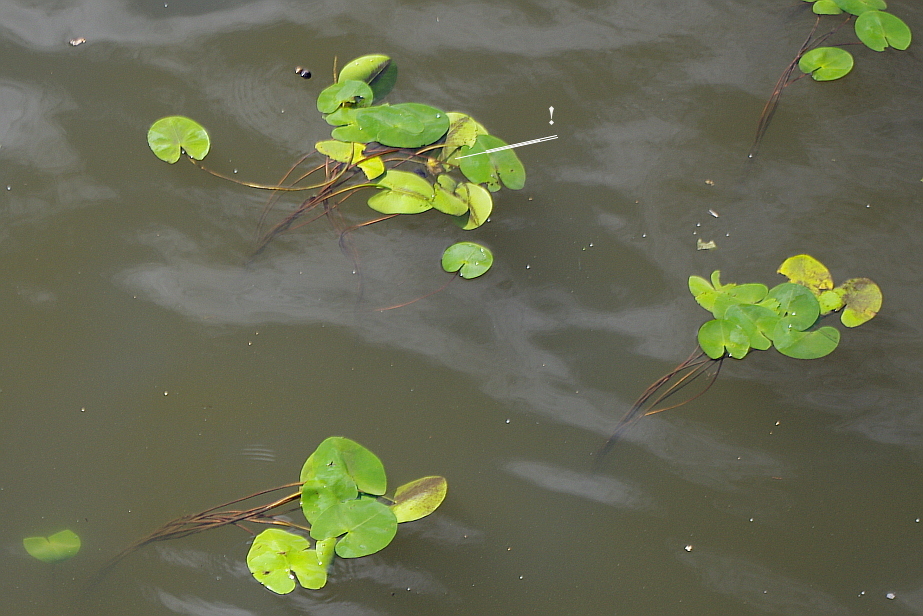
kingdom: Plantae
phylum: Tracheophyta
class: Magnoliopsida
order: Nymphaeales
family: Nymphaeaceae
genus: Nuphar
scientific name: Nuphar lutea
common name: Yellow water-lily
